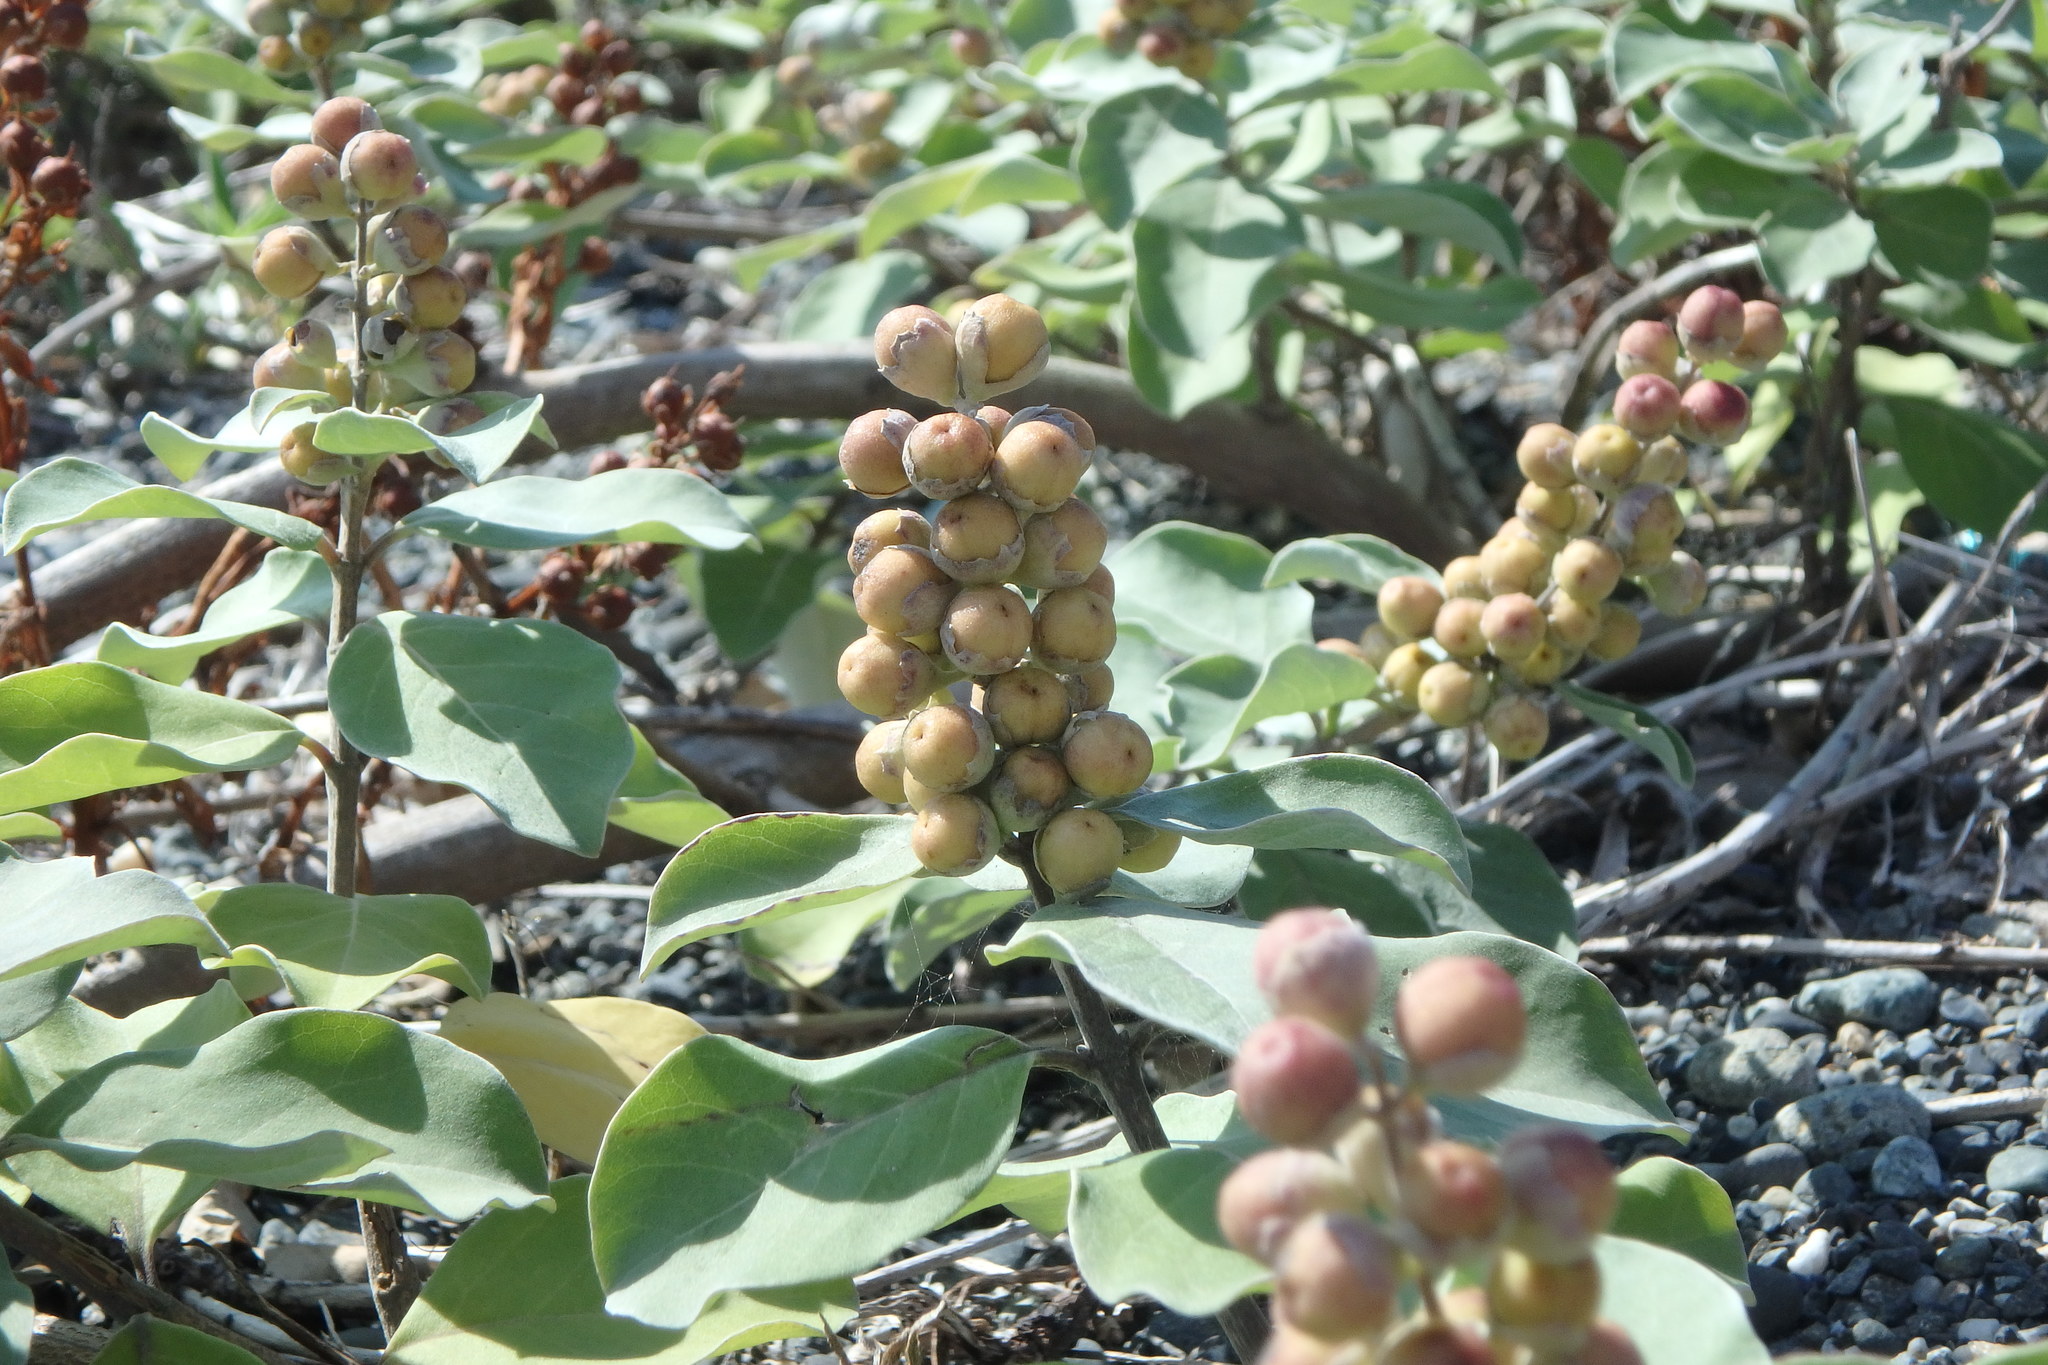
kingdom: Plantae
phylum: Tracheophyta
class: Magnoliopsida
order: Lamiales
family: Lamiaceae
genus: Vitex
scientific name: Vitex rotundifolia
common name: Beach vitex
